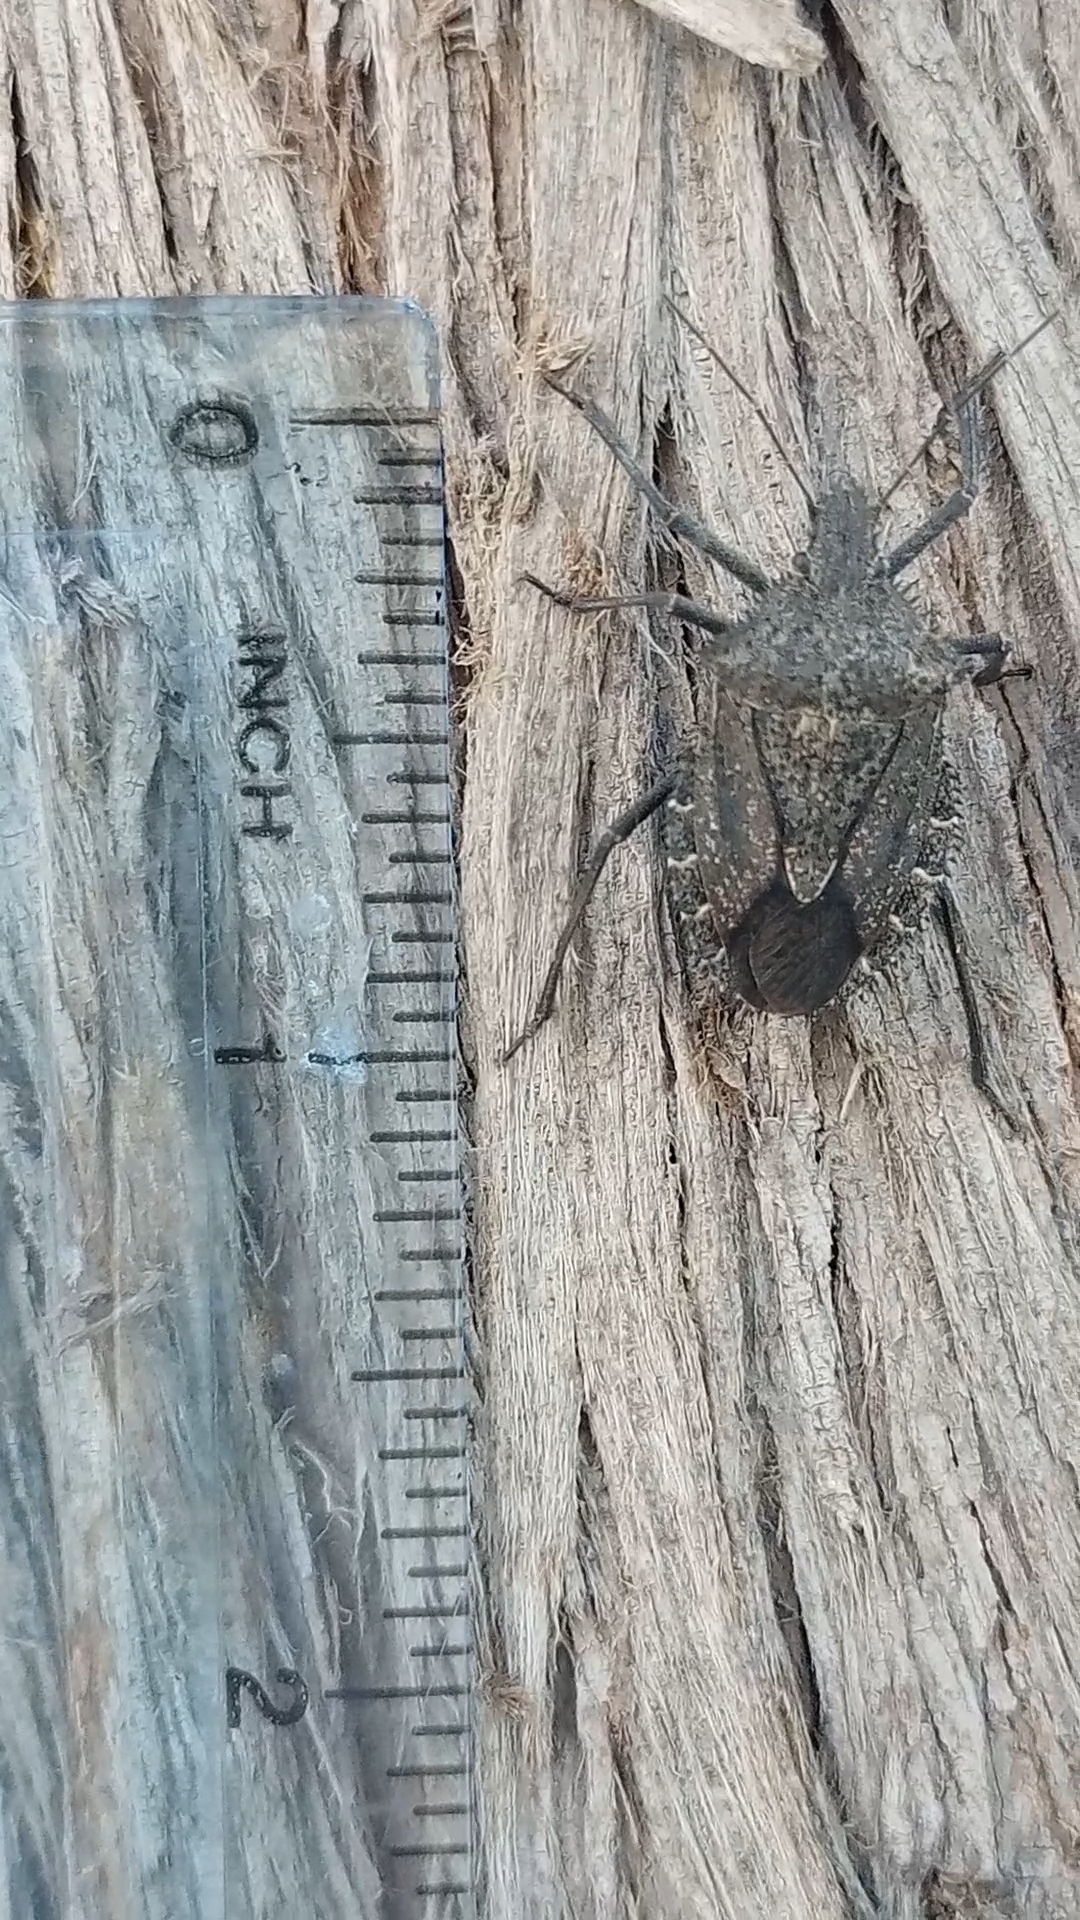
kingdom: Animalia
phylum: Arthropoda
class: Insecta
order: Hemiptera
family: Pentatomidae
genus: Mustha
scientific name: Mustha spinosula
